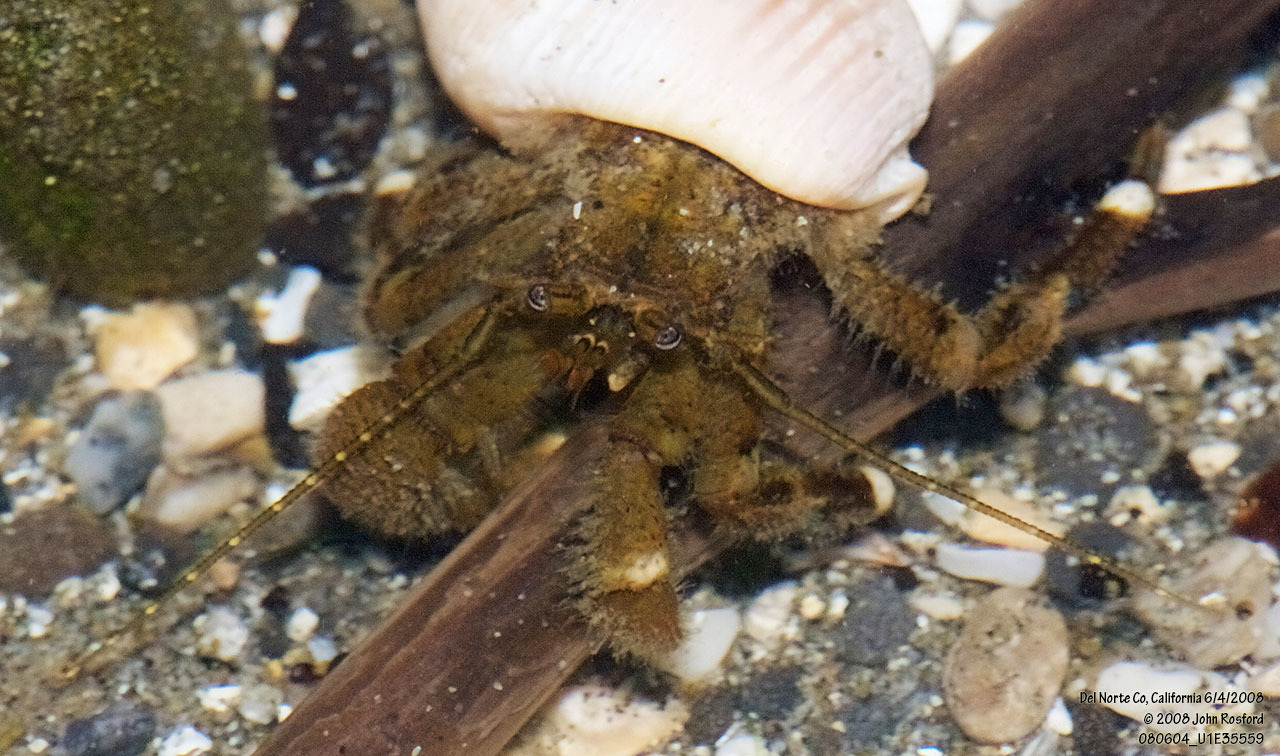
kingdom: Animalia
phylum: Arthropoda
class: Malacostraca
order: Decapoda
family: Paguridae
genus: Pagurus
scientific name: Pagurus hirsutiusculus
